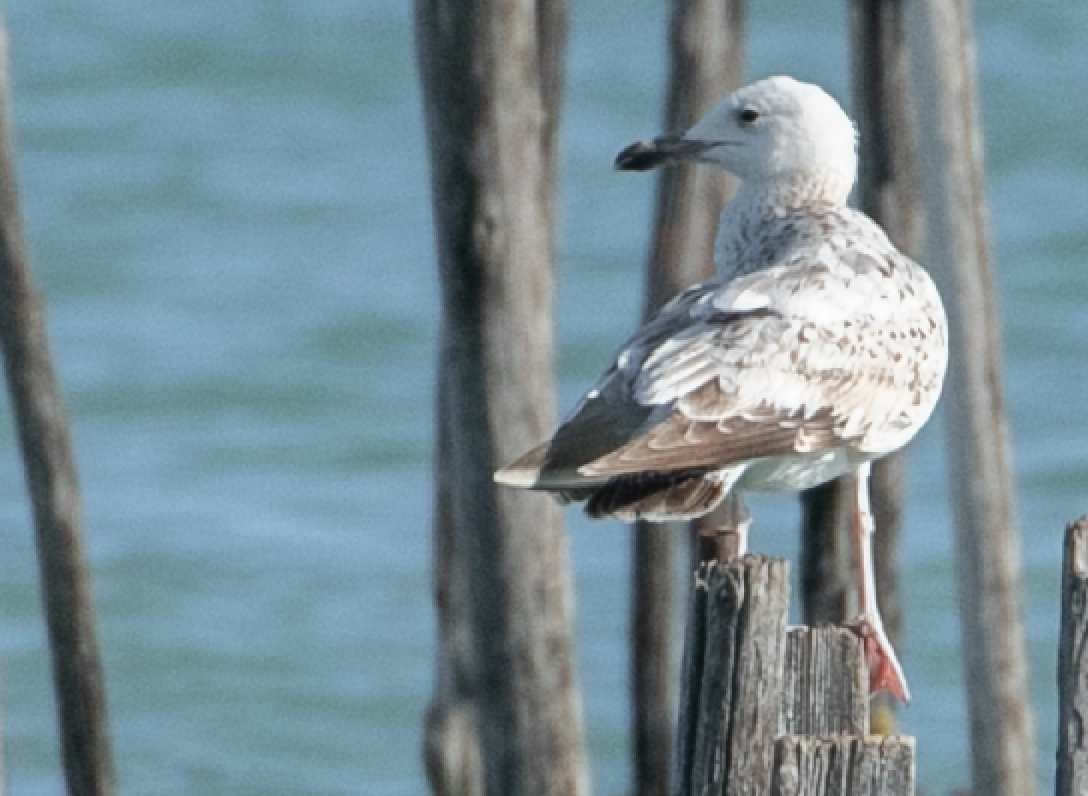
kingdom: Animalia
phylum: Chordata
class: Aves
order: Charadriiformes
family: Laridae
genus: Larus
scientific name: Larus cachinnans
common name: Caspian gull
